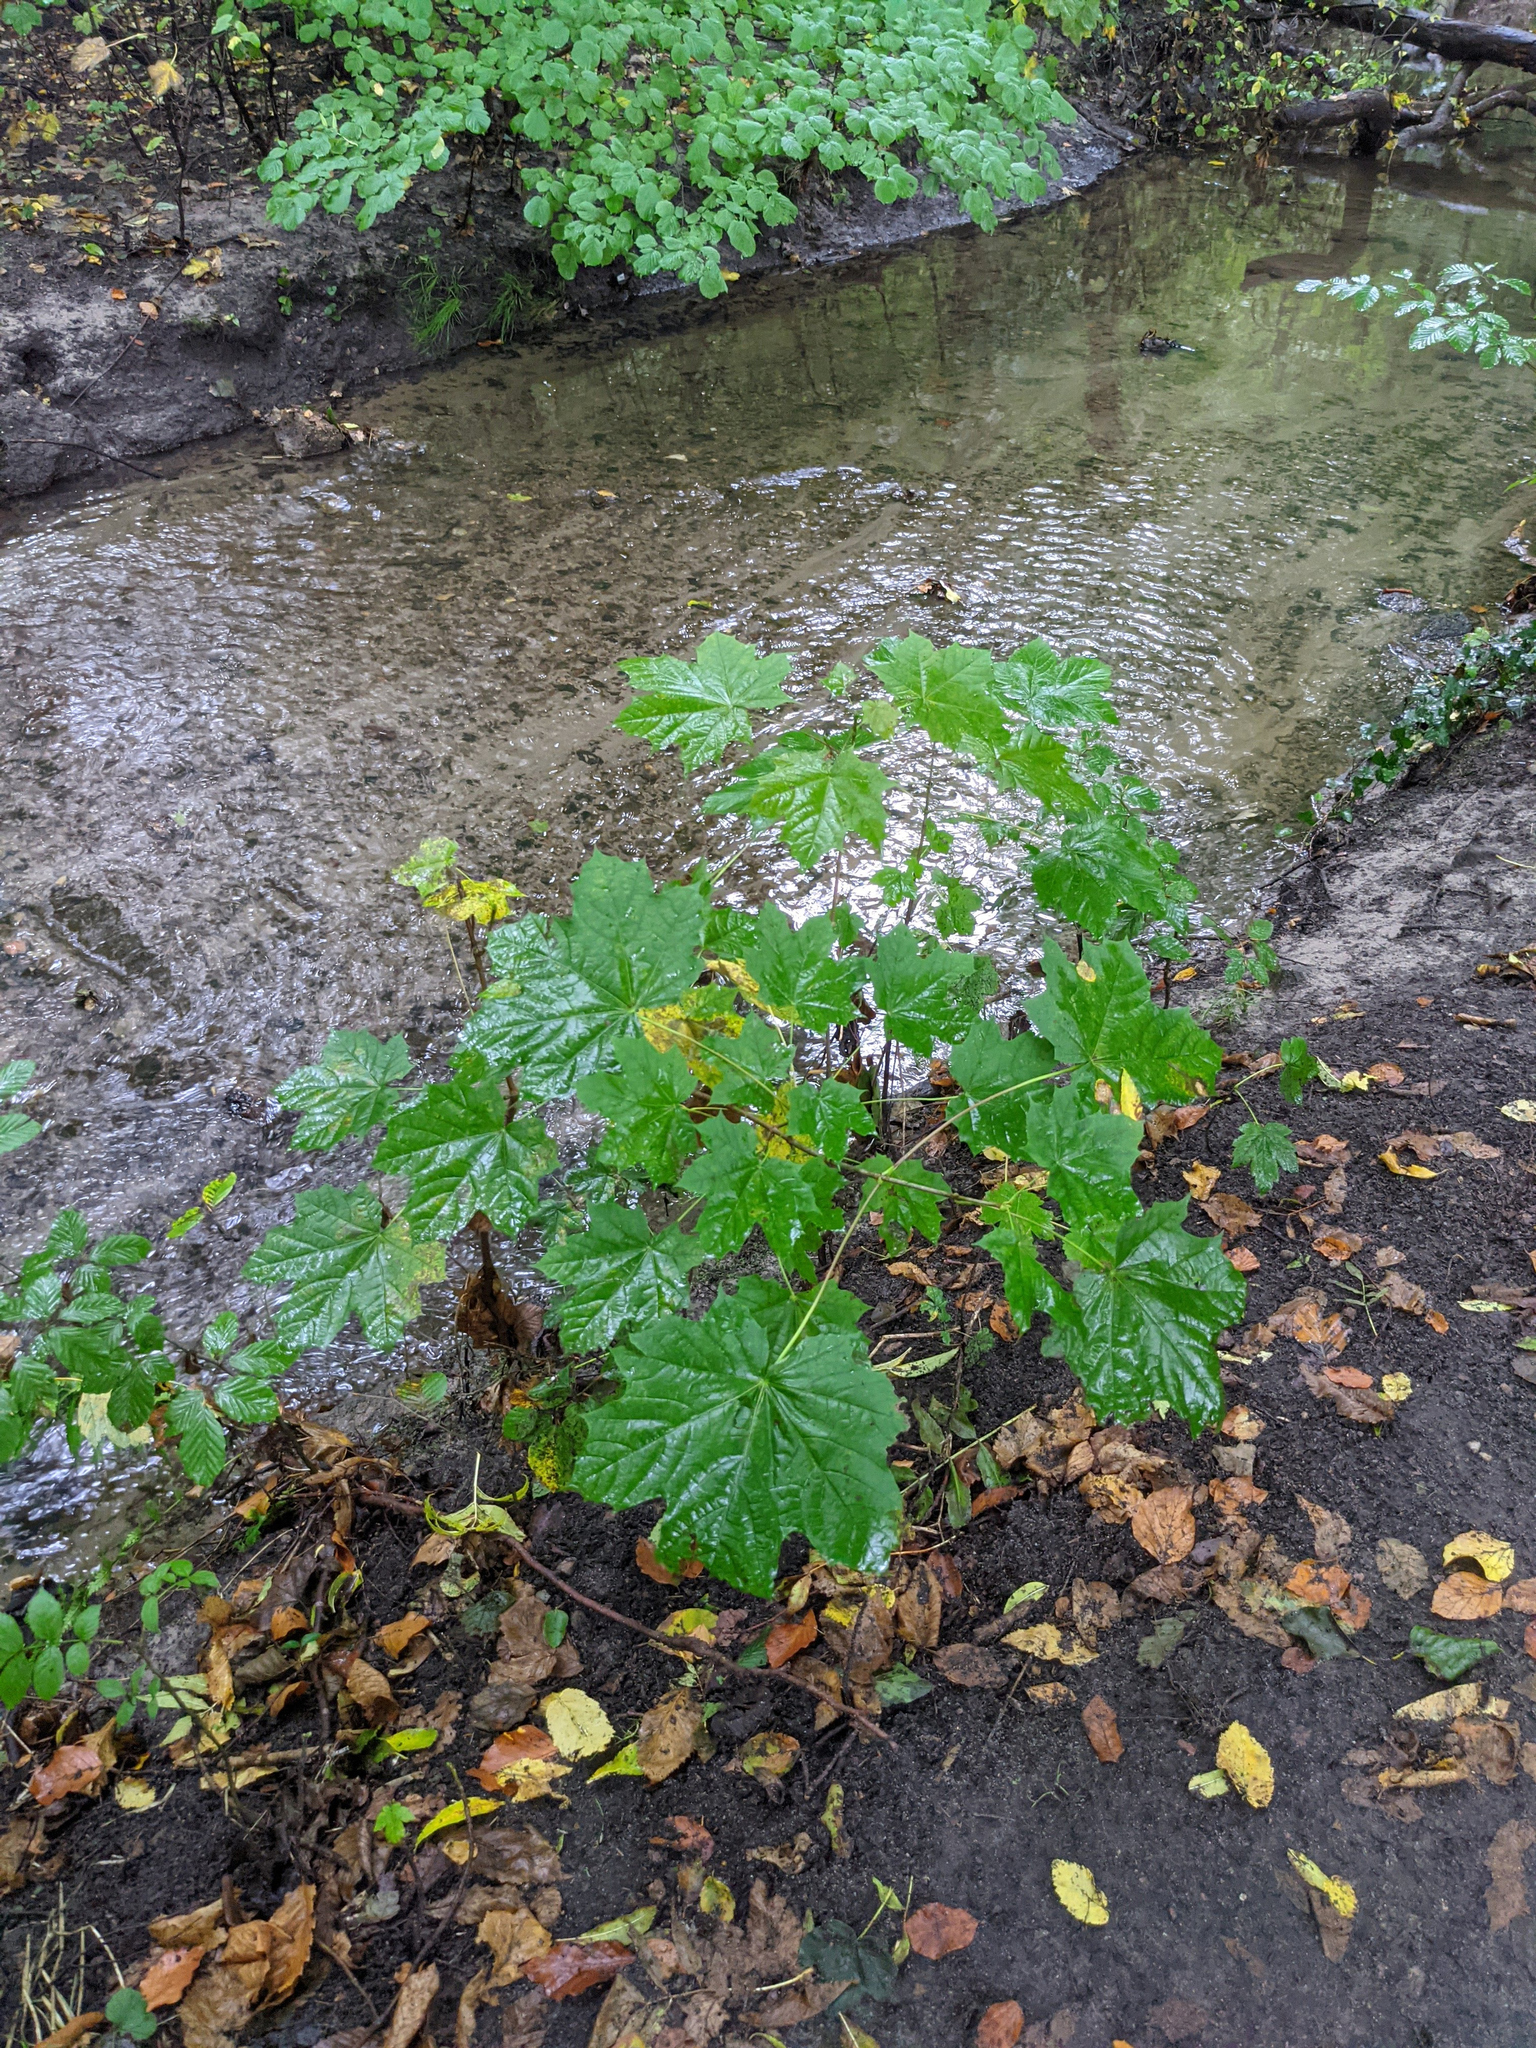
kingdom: Plantae
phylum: Tracheophyta
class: Magnoliopsida
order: Sapindales
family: Sapindaceae
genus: Acer
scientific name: Acer platanoides
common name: Norway maple
